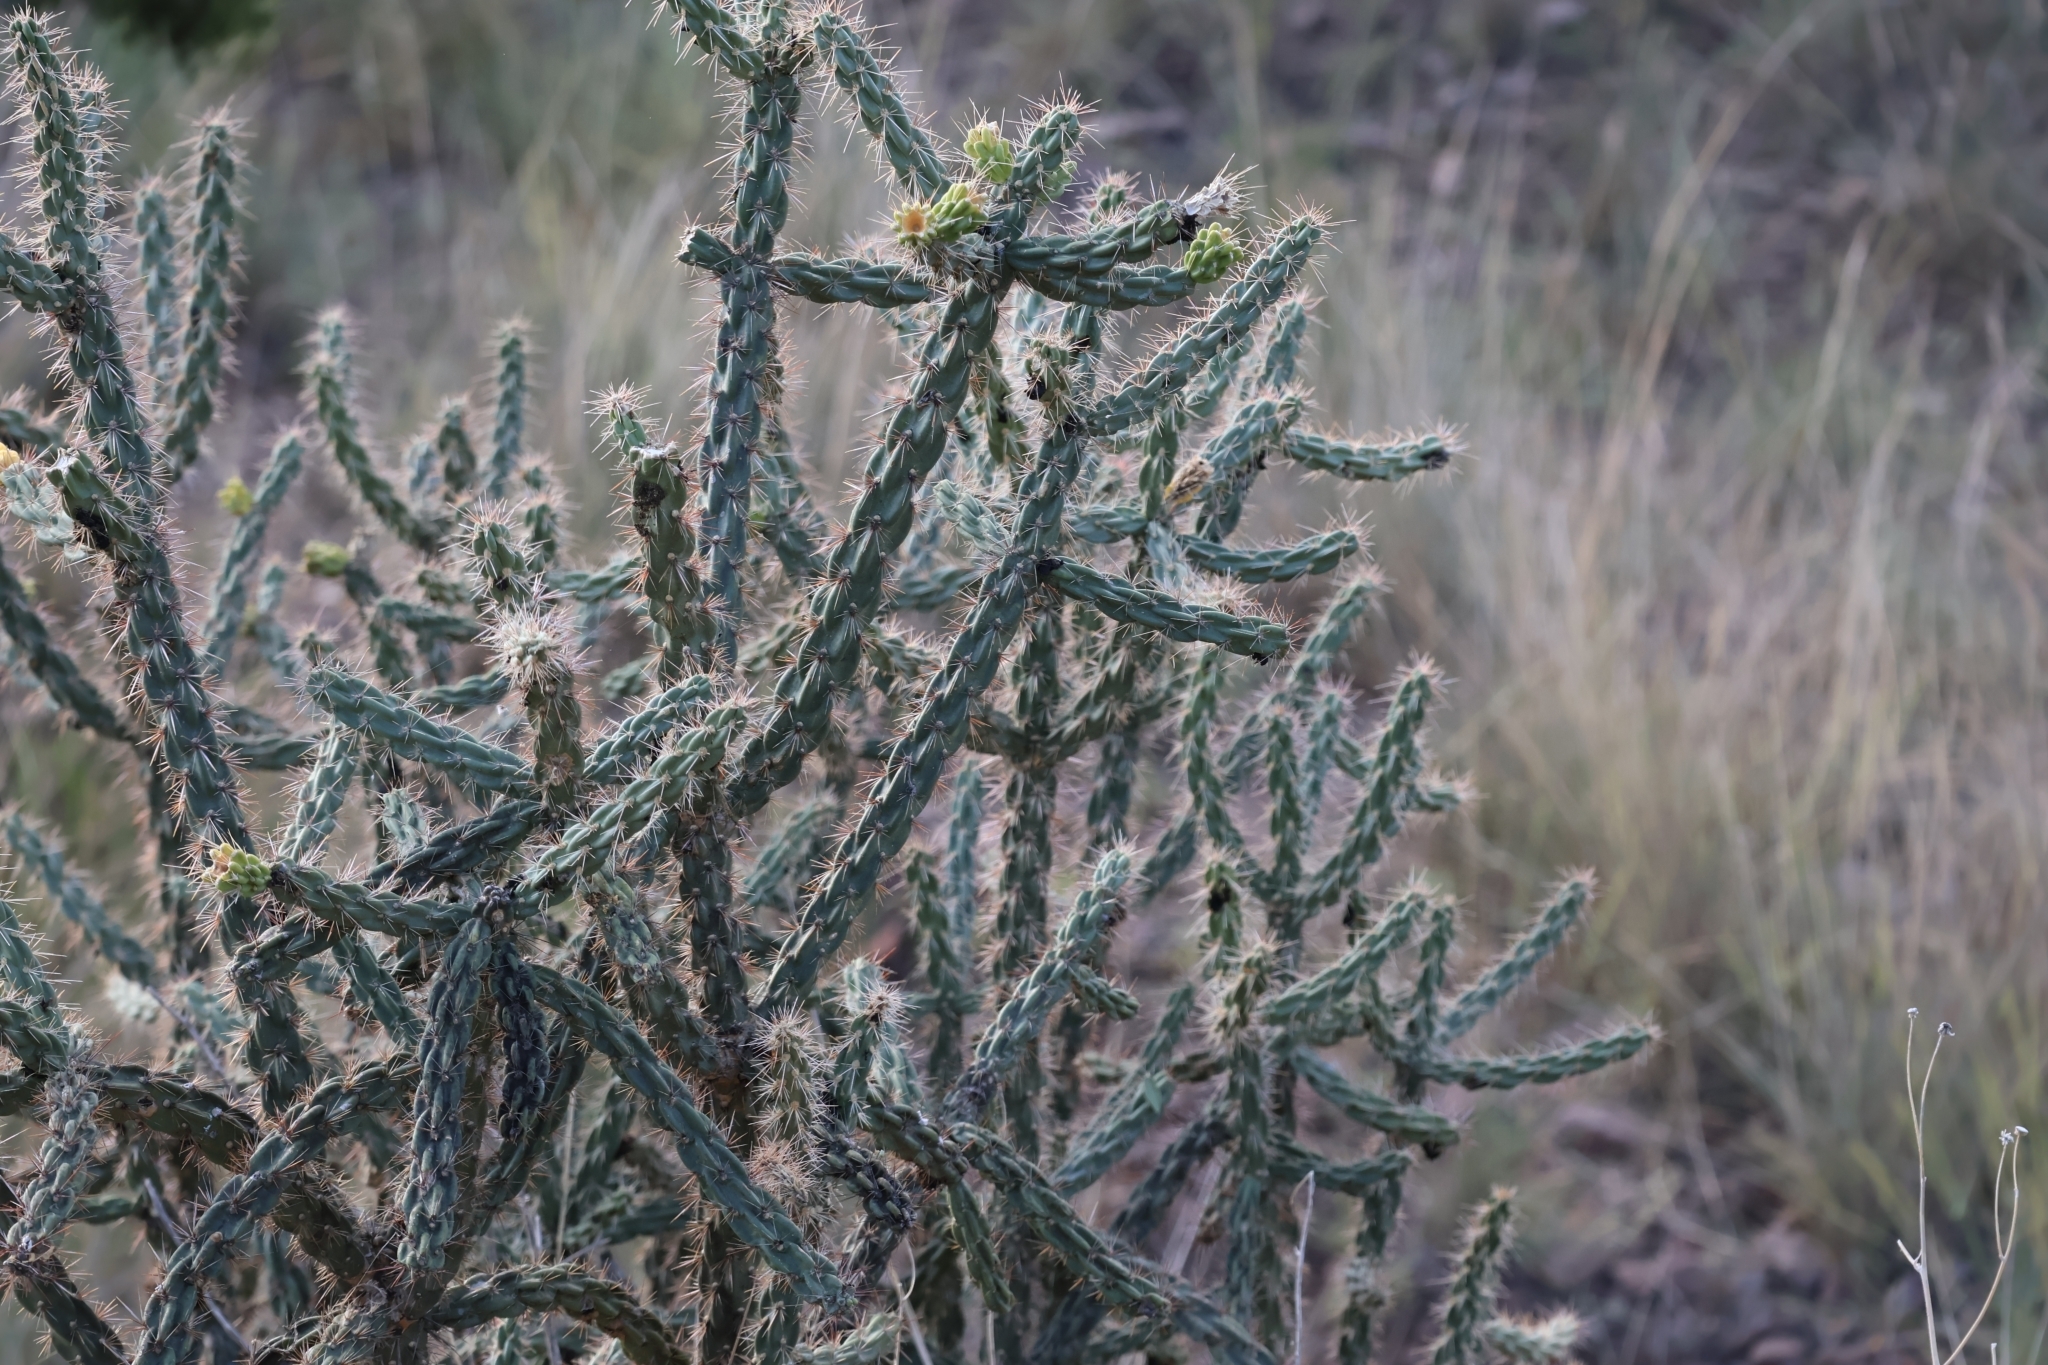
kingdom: Plantae
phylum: Tracheophyta
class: Magnoliopsida
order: Caryophyllales
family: Cactaceae
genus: Cylindropuntia
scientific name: Cylindropuntia imbricata
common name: Candelabrum cactus
